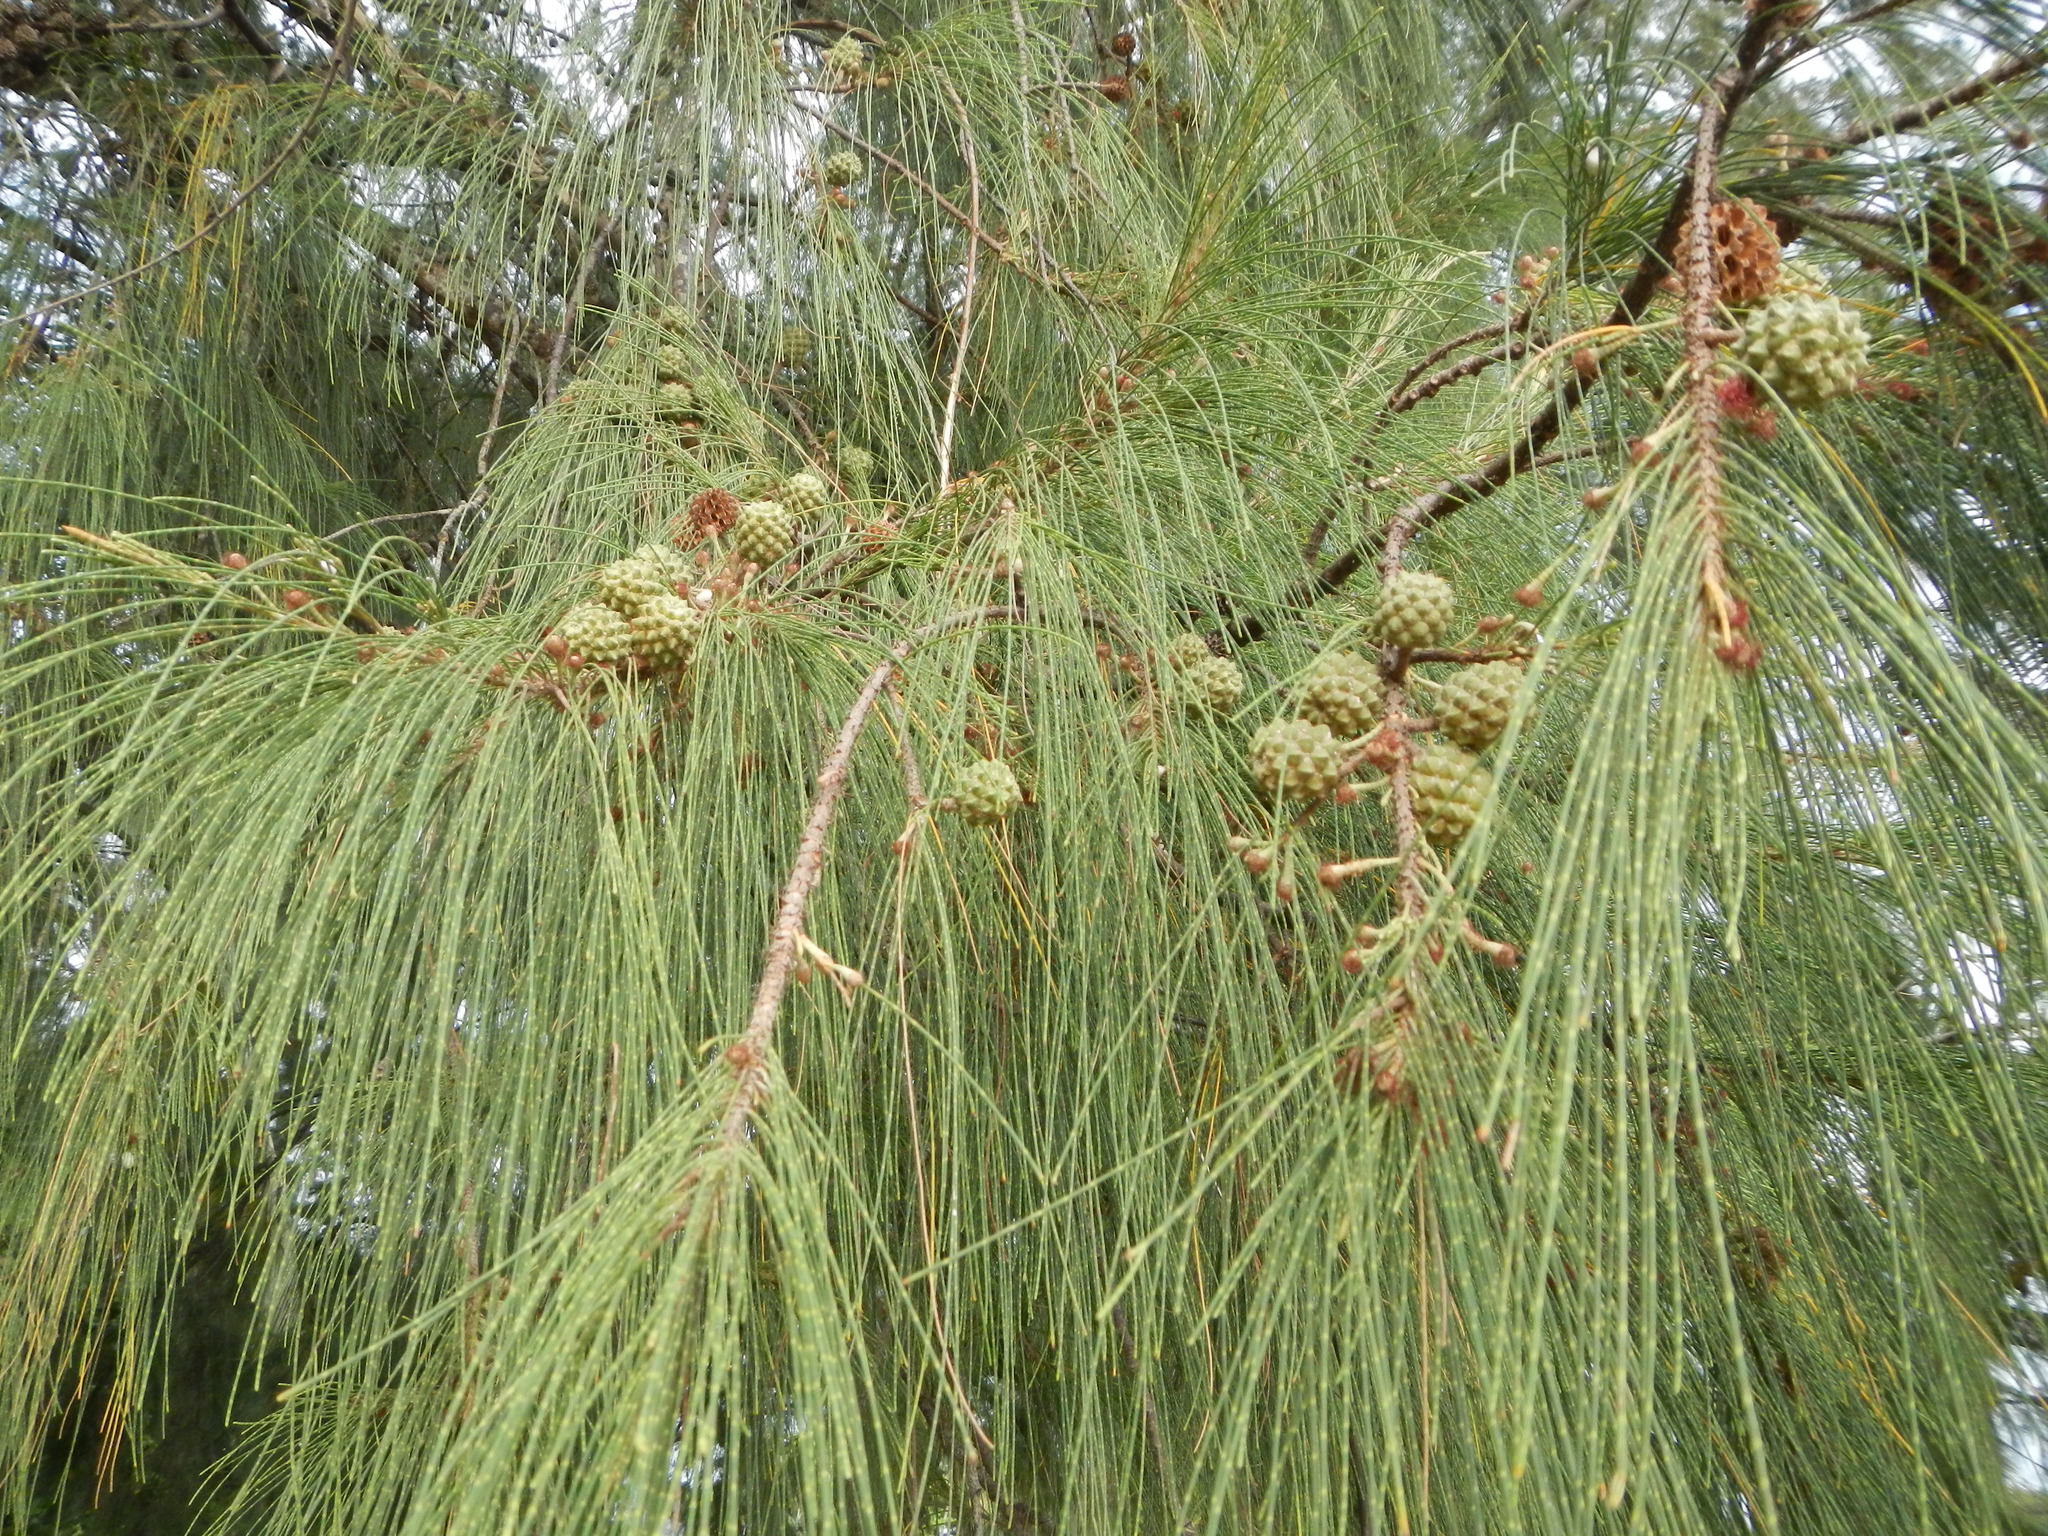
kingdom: Plantae
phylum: Tracheophyta
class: Magnoliopsida
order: Fagales
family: Casuarinaceae
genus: Casuarina
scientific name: Casuarina equisetifolia
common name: Beach sheoak
